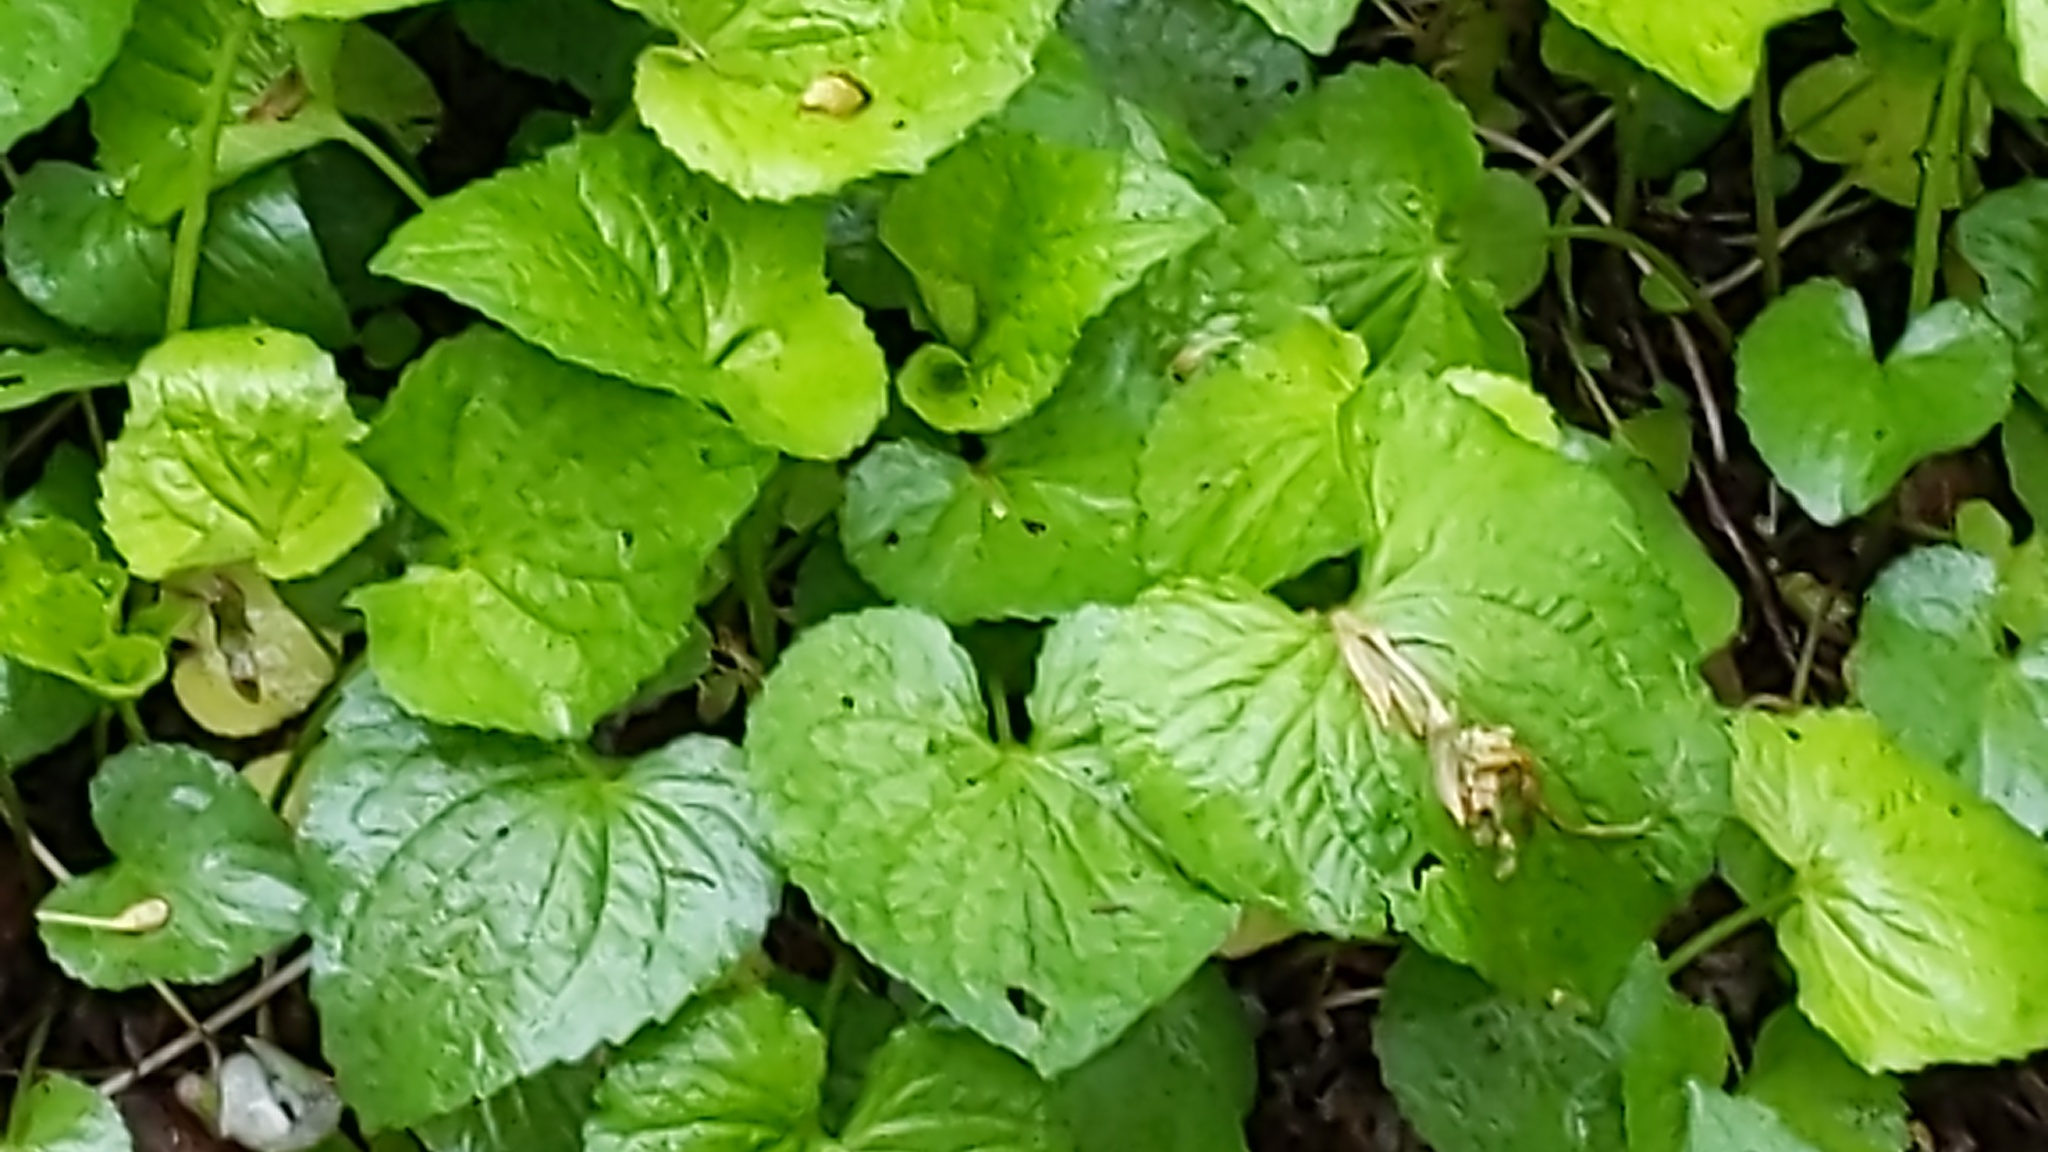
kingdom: Plantae
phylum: Tracheophyta
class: Magnoliopsida
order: Malpighiales
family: Violaceae
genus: Viola
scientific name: Viola sororia
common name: Dooryard violet
